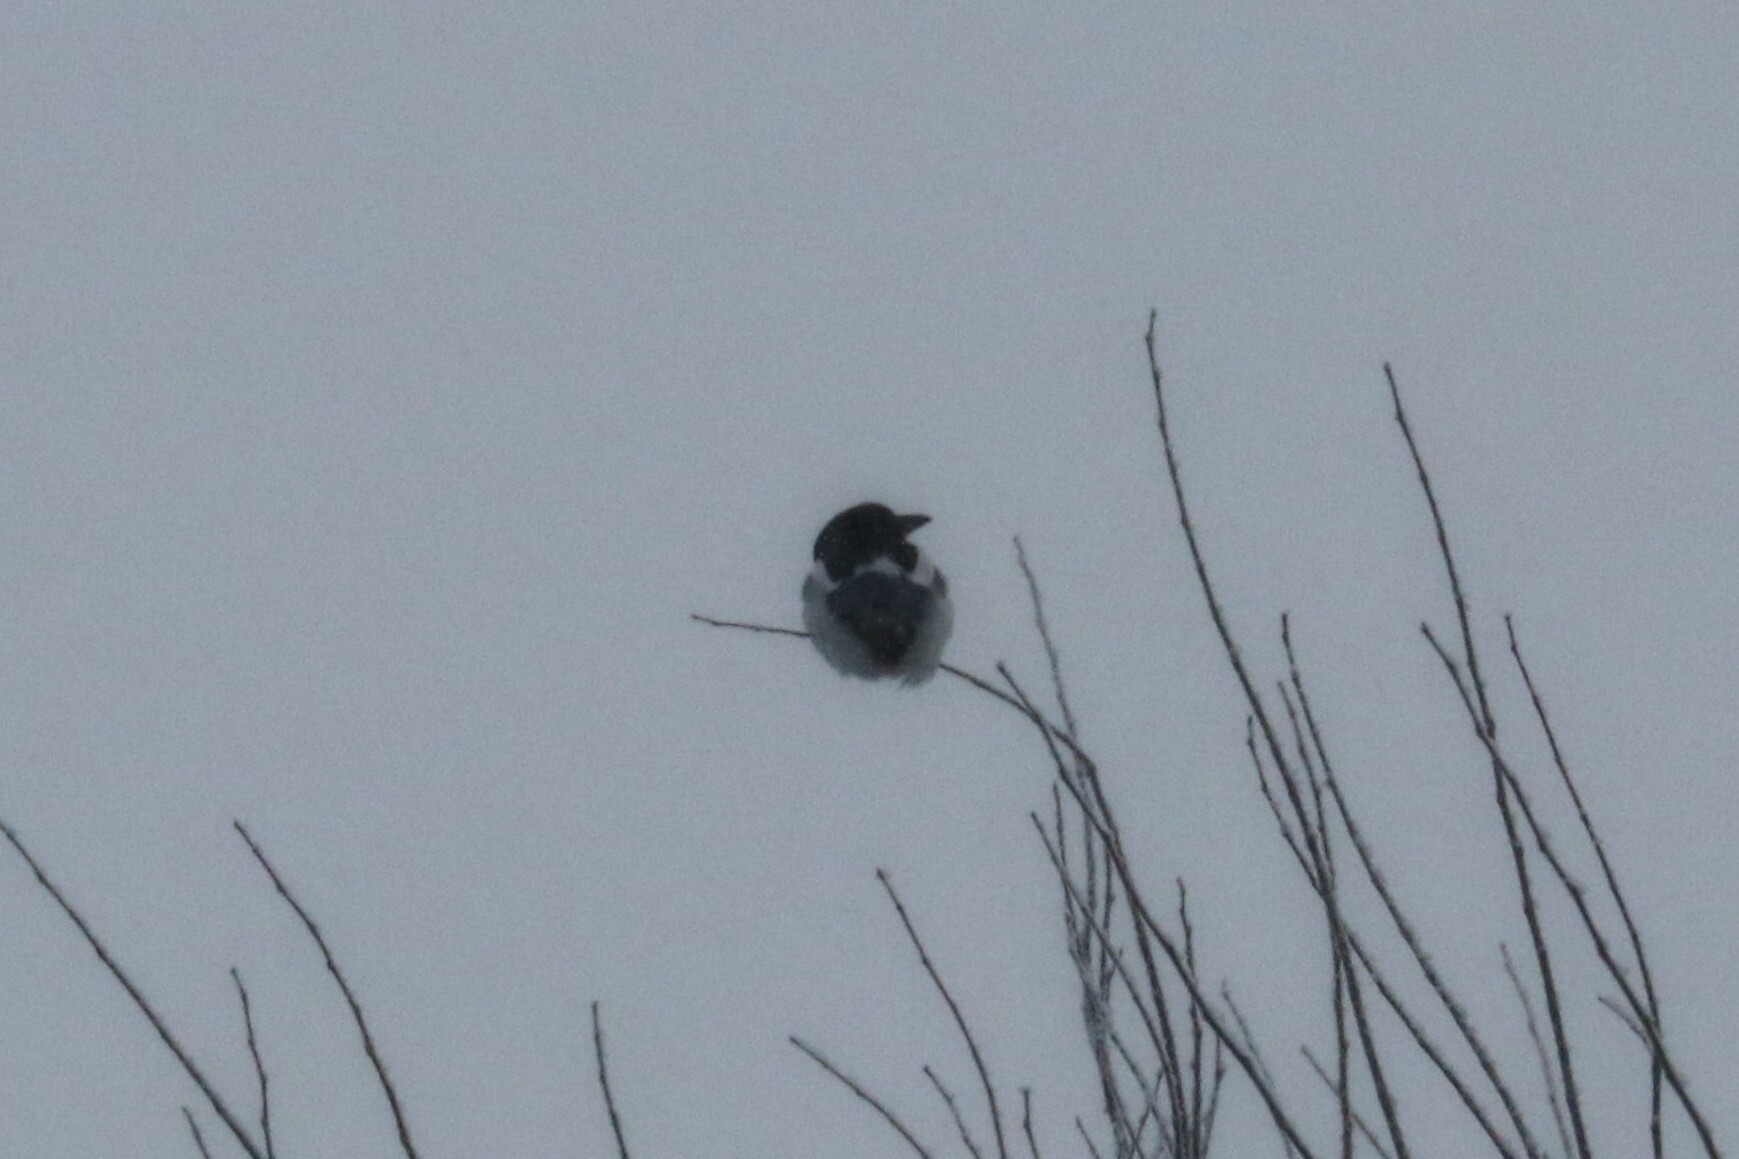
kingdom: Animalia
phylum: Chordata
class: Aves
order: Passeriformes
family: Corvidae
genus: Pica
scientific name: Pica pica
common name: Eurasian magpie
